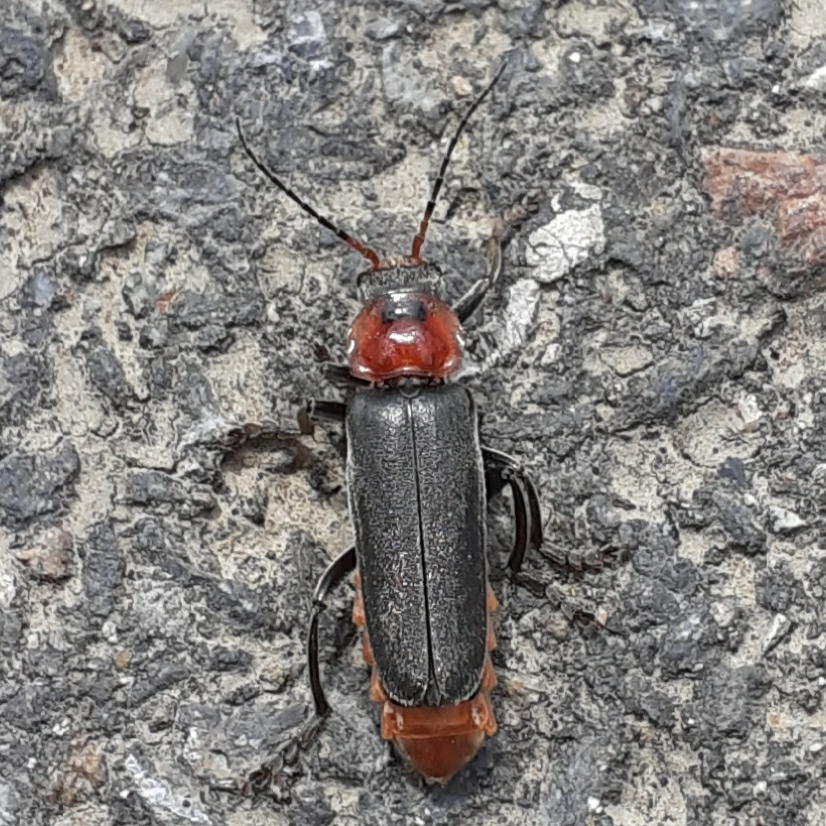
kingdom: Animalia
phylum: Arthropoda
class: Insecta
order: Coleoptera
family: Cantharidae
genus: Cantharis
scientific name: Cantharis fusca
